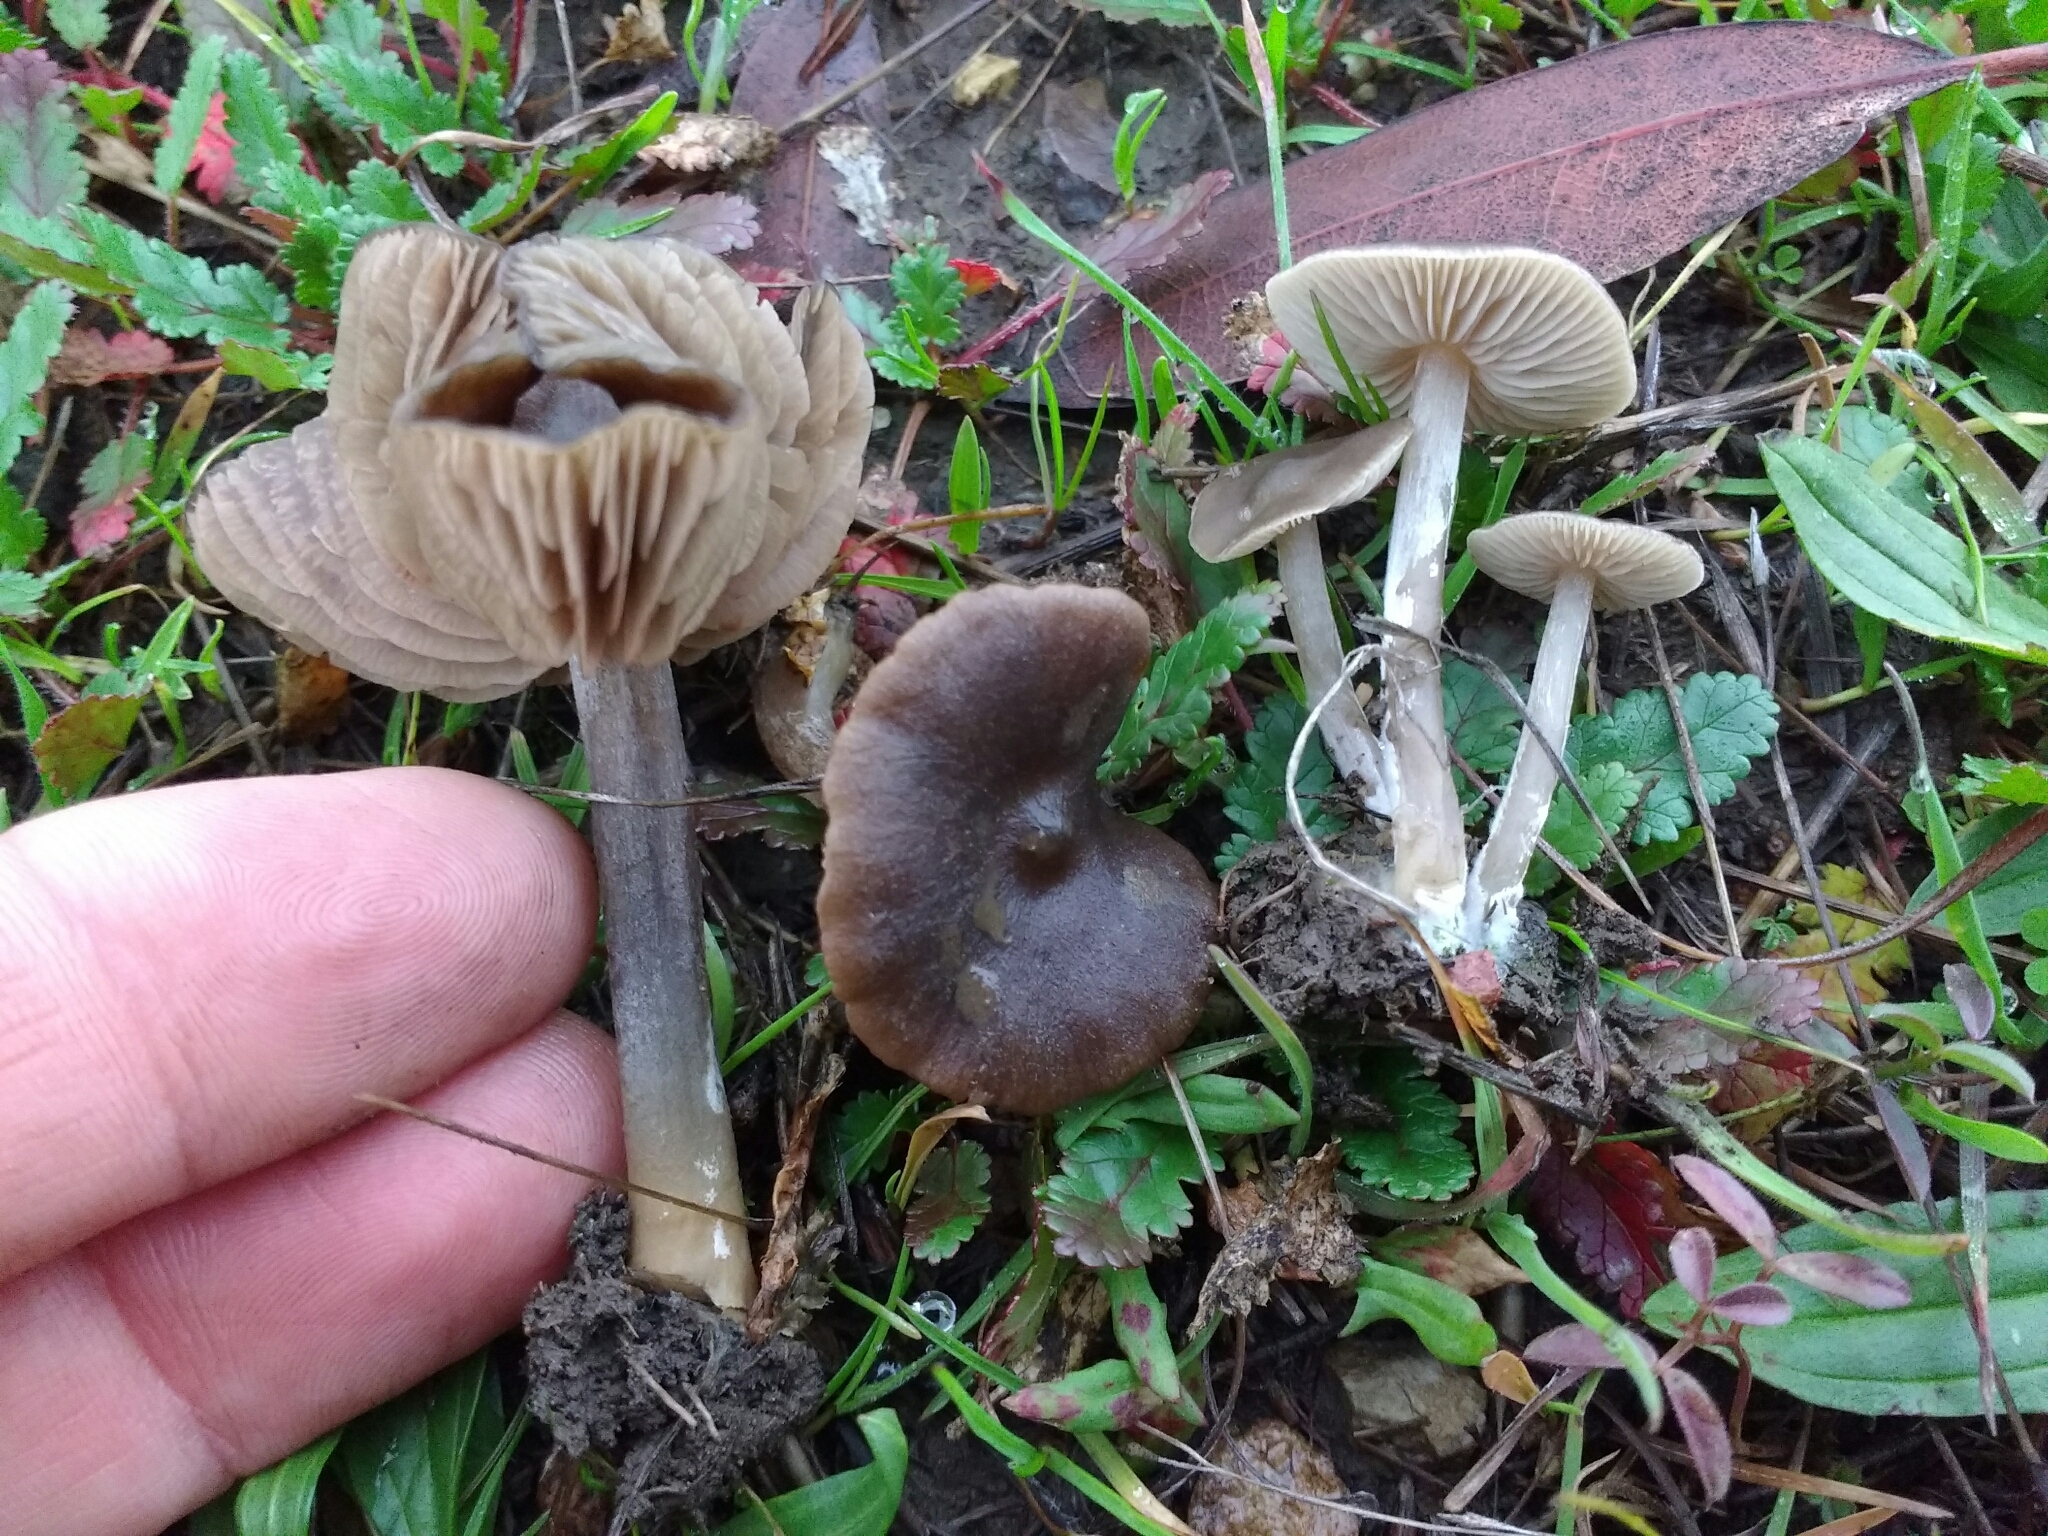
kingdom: Fungi
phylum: Basidiomycota
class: Agaricomycetes
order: Agaricales
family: Entolomataceae
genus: Entoloma
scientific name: Entoloma sericeum
